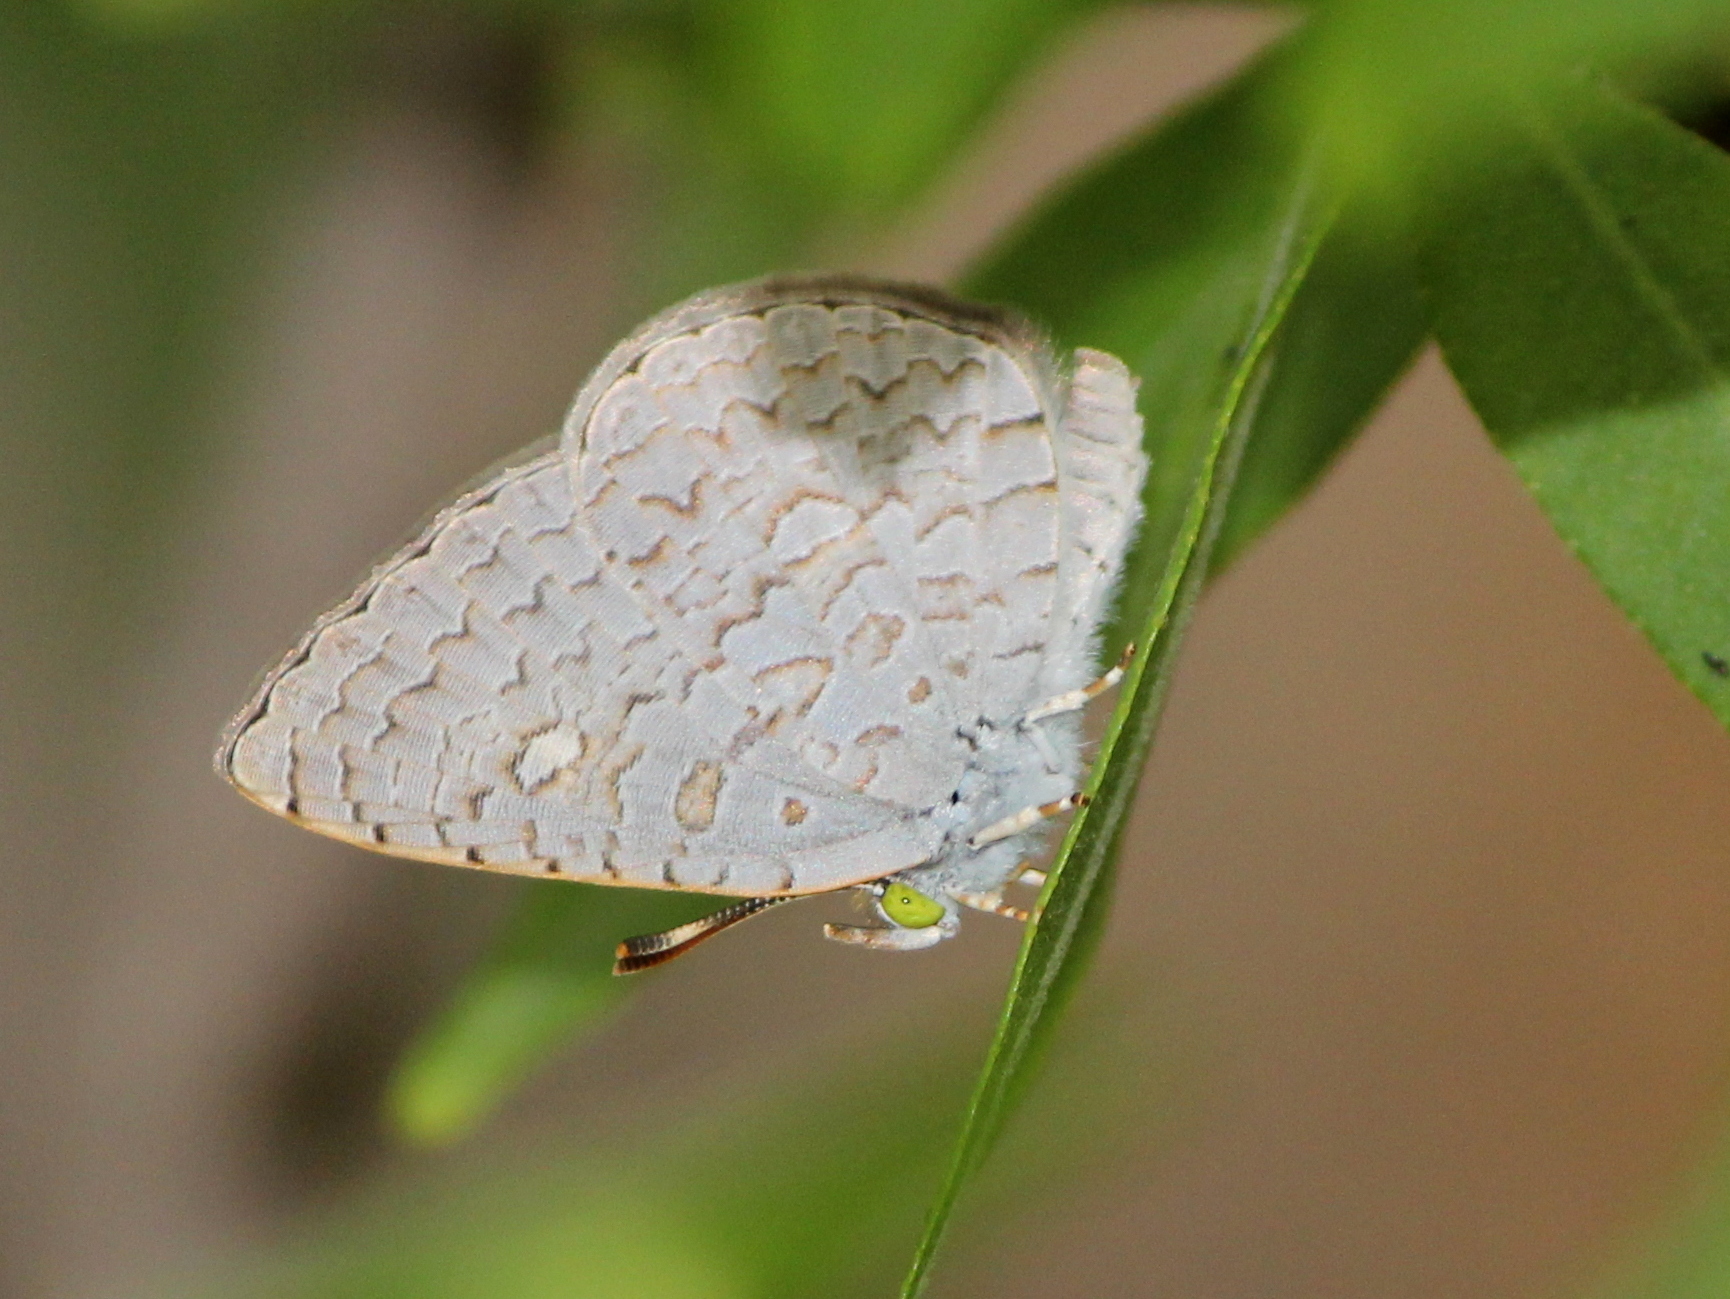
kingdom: Animalia
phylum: Arthropoda
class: Insecta
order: Lepidoptera
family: Lycaenidae
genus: Spalgis
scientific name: Spalgis epius
